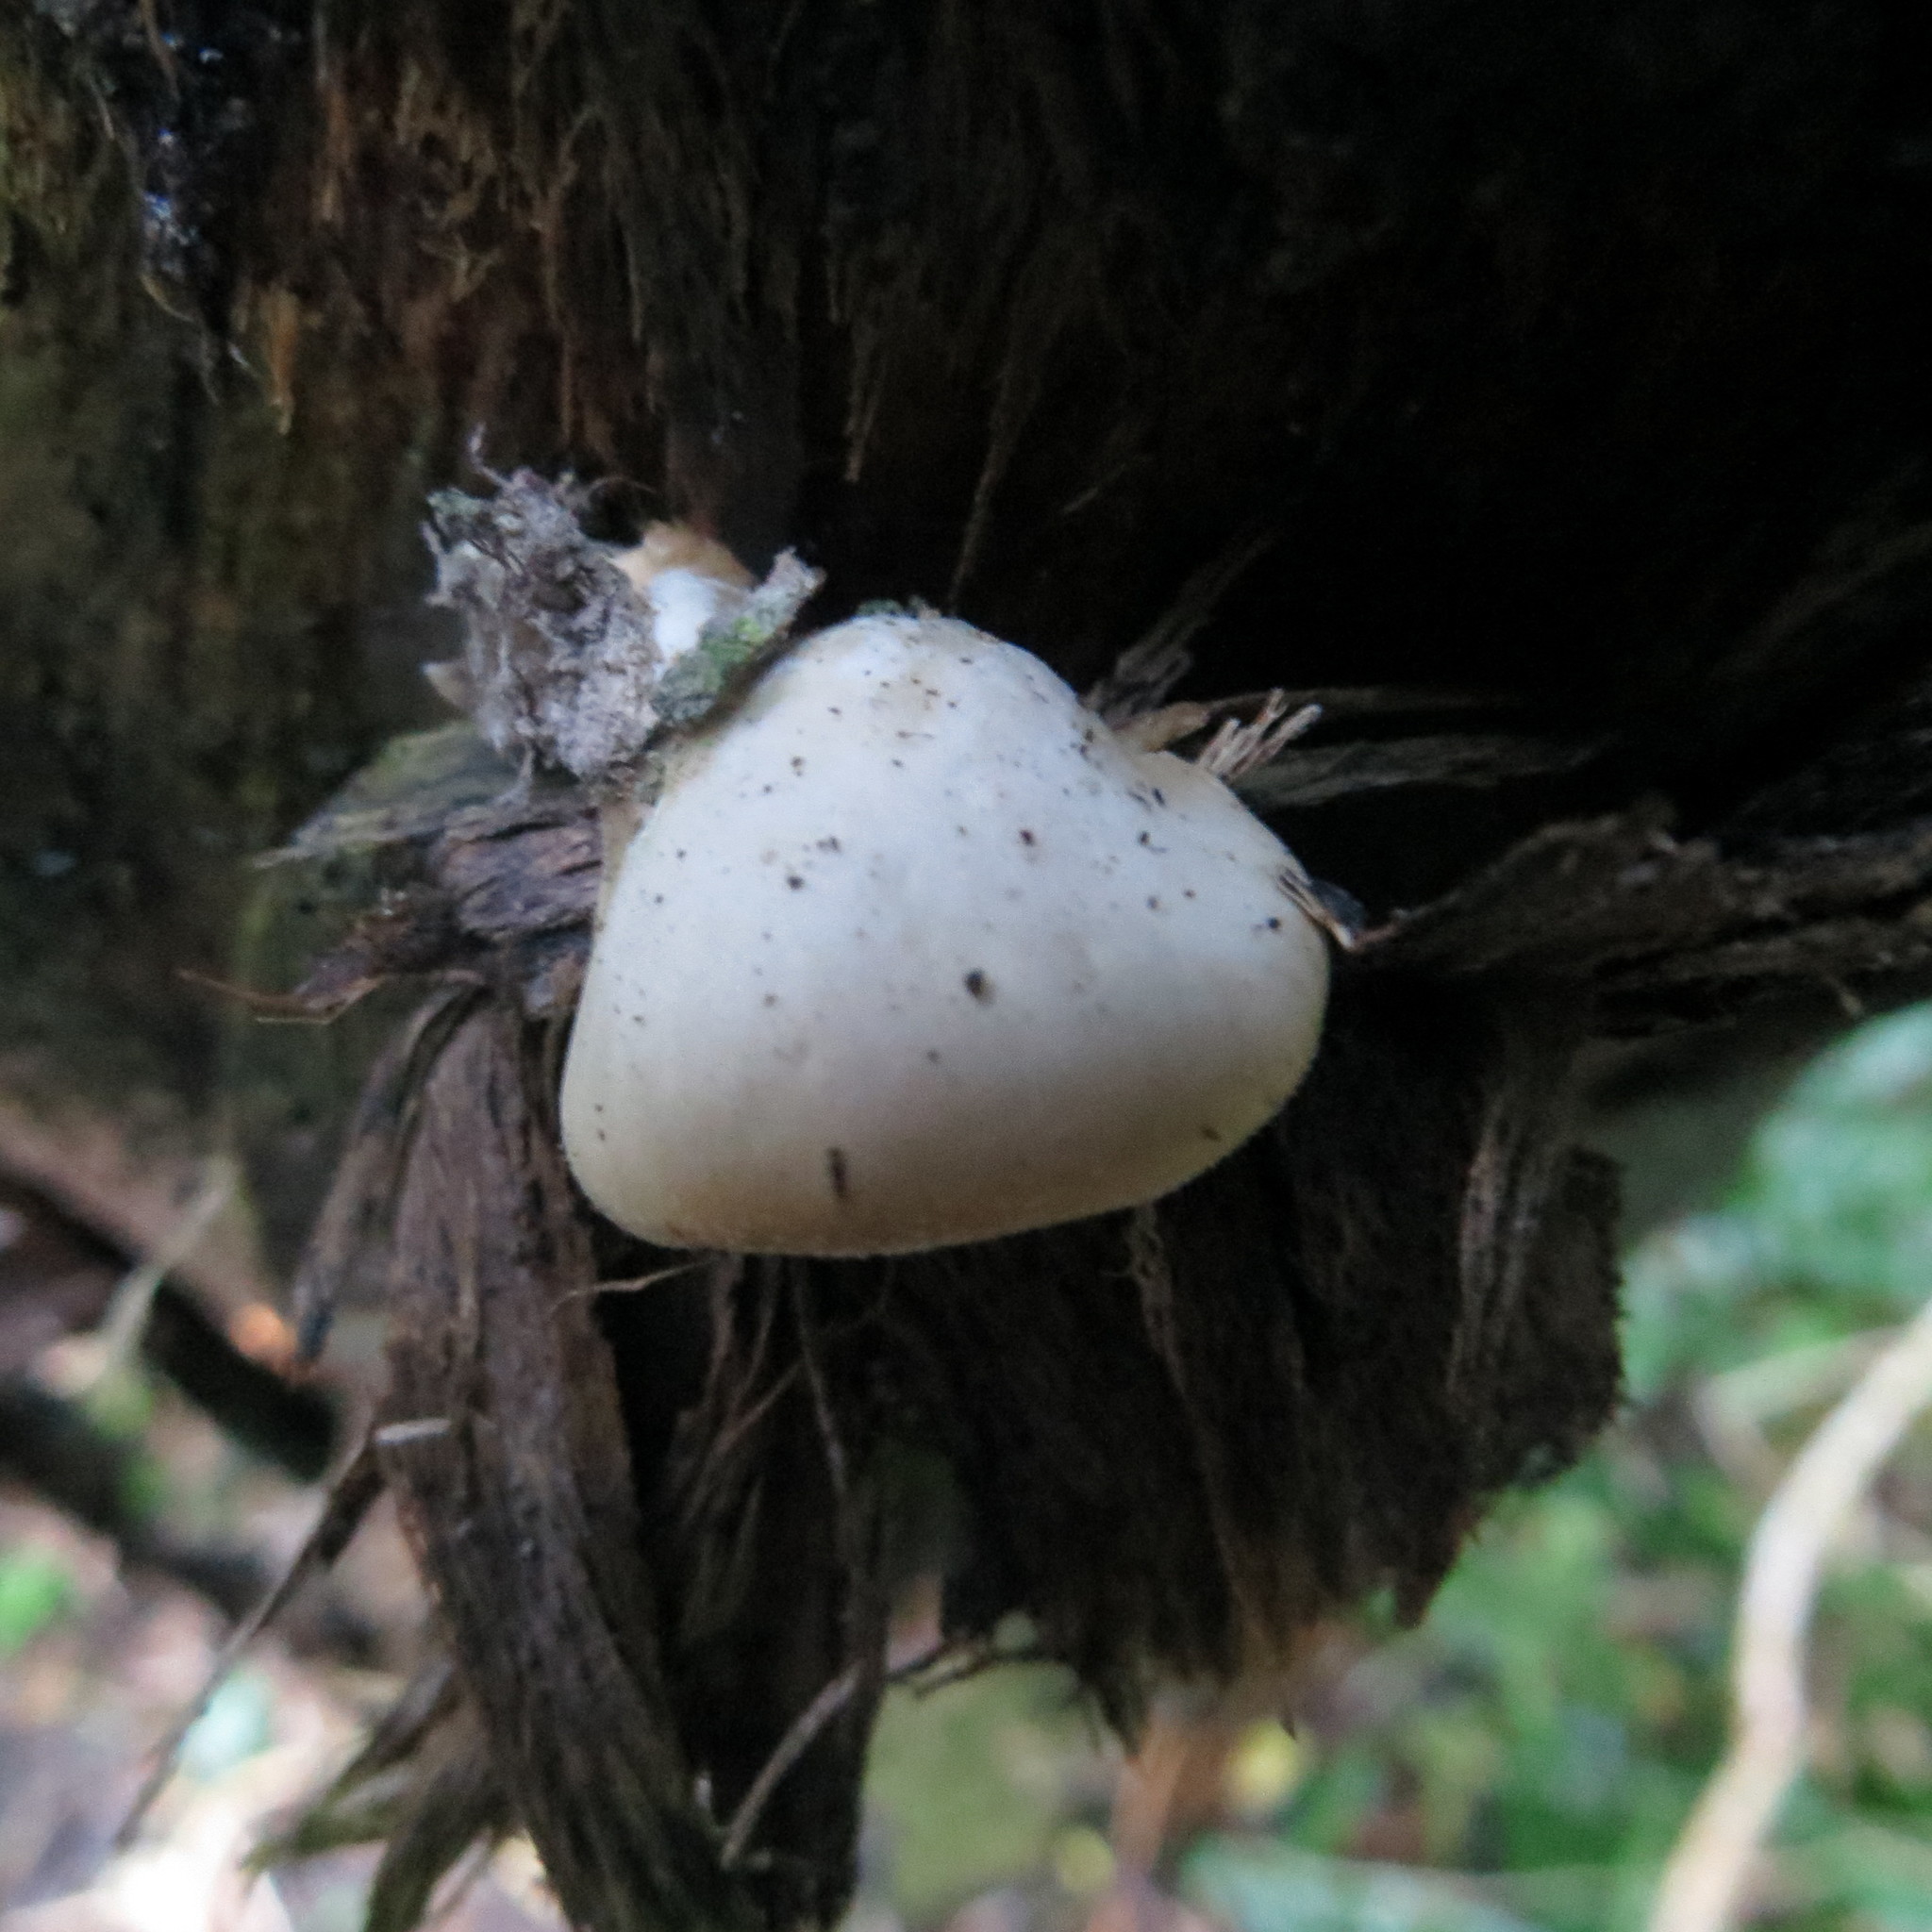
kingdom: Fungi
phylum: Basidiomycota
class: Agaricomycetes
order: Agaricales
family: Tricholomataceae
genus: Conchomyces
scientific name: Conchomyces bursiformis
